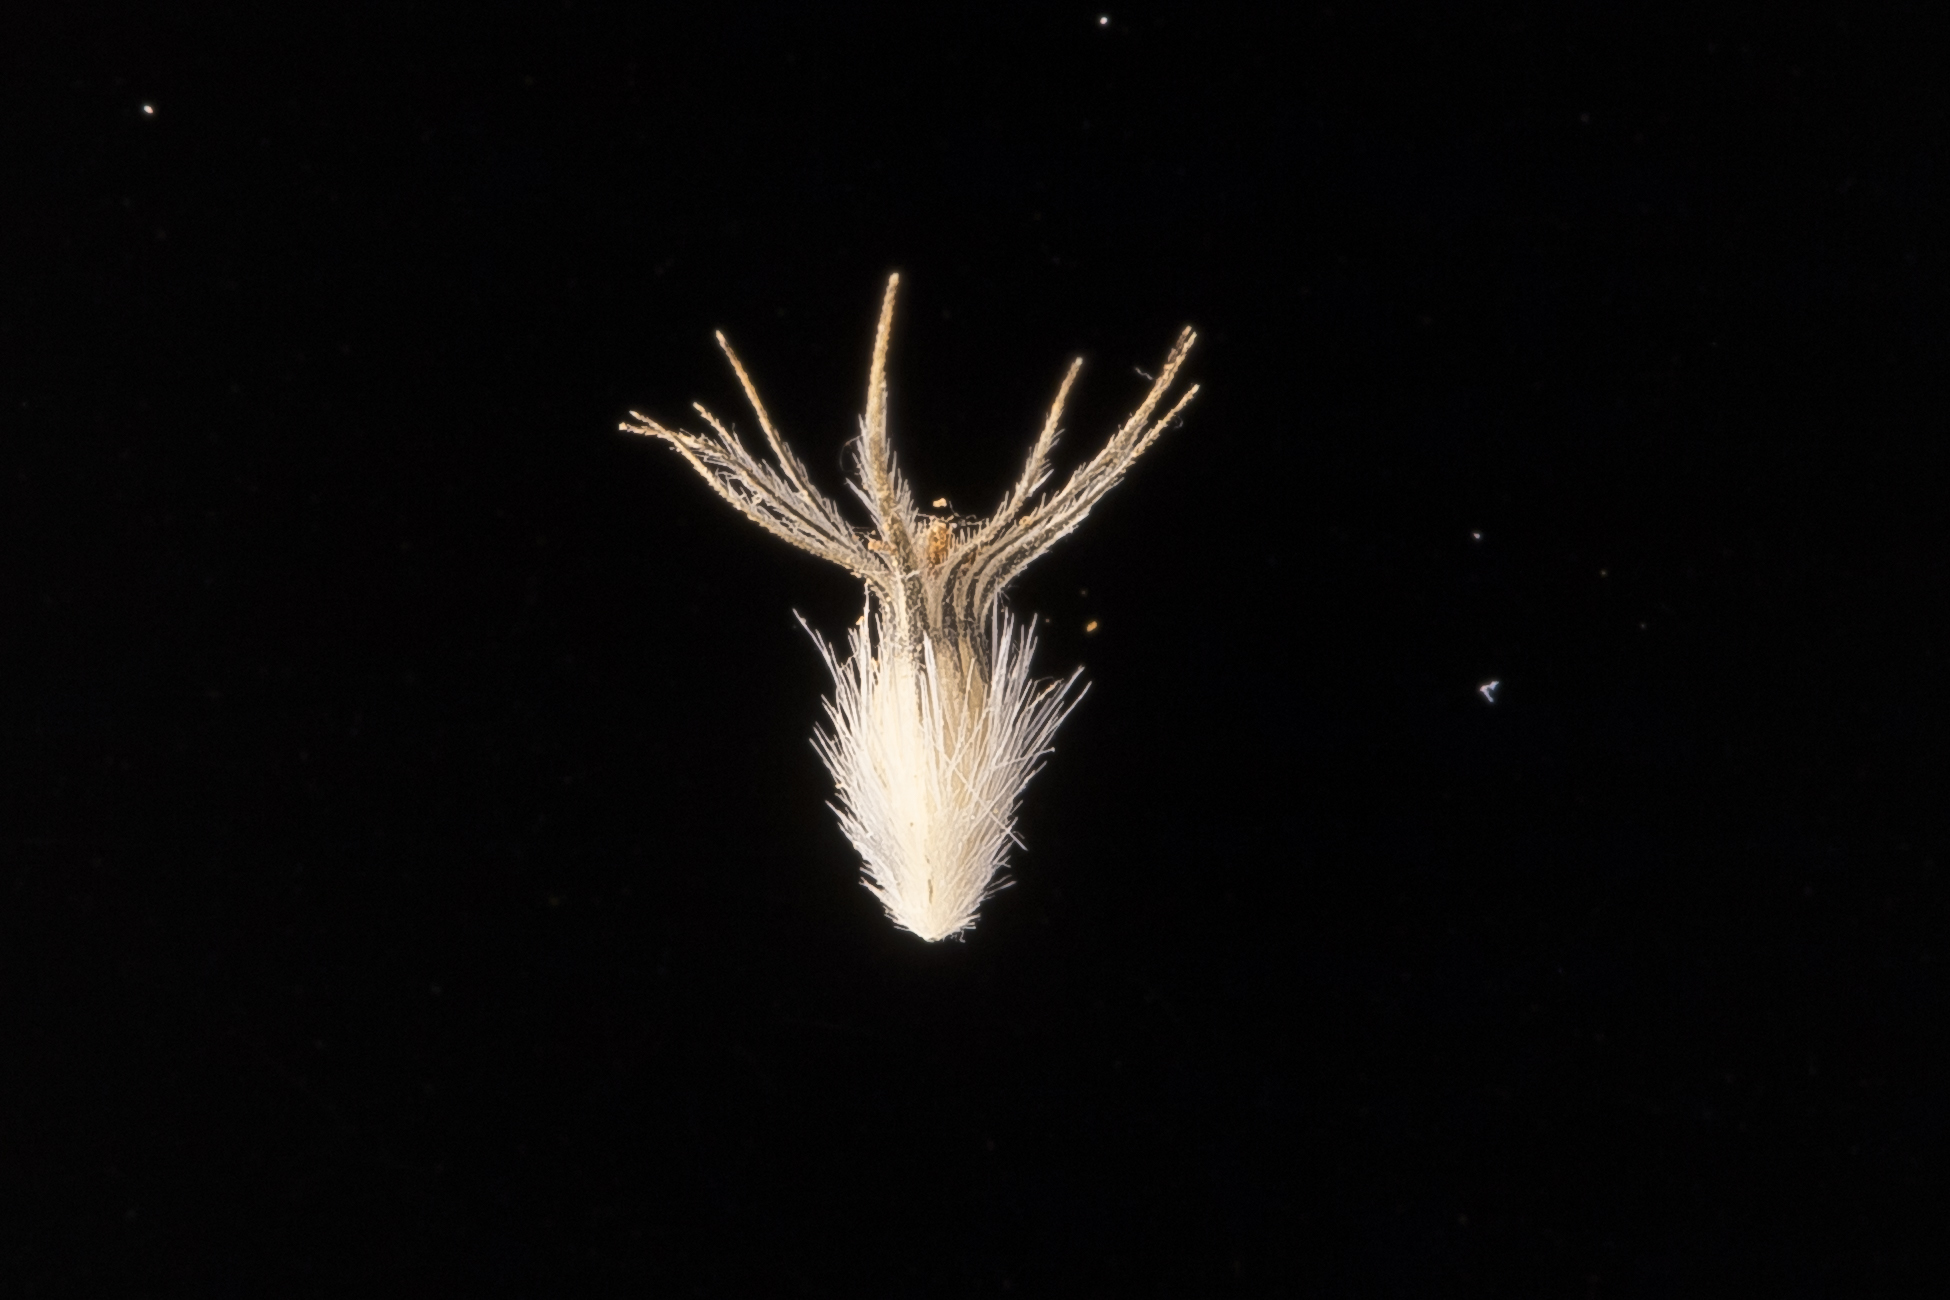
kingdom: Plantae
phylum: Tracheophyta
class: Liliopsida
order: Poales
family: Poaceae
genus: Enneapogon
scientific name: Enneapogon cylindricus
